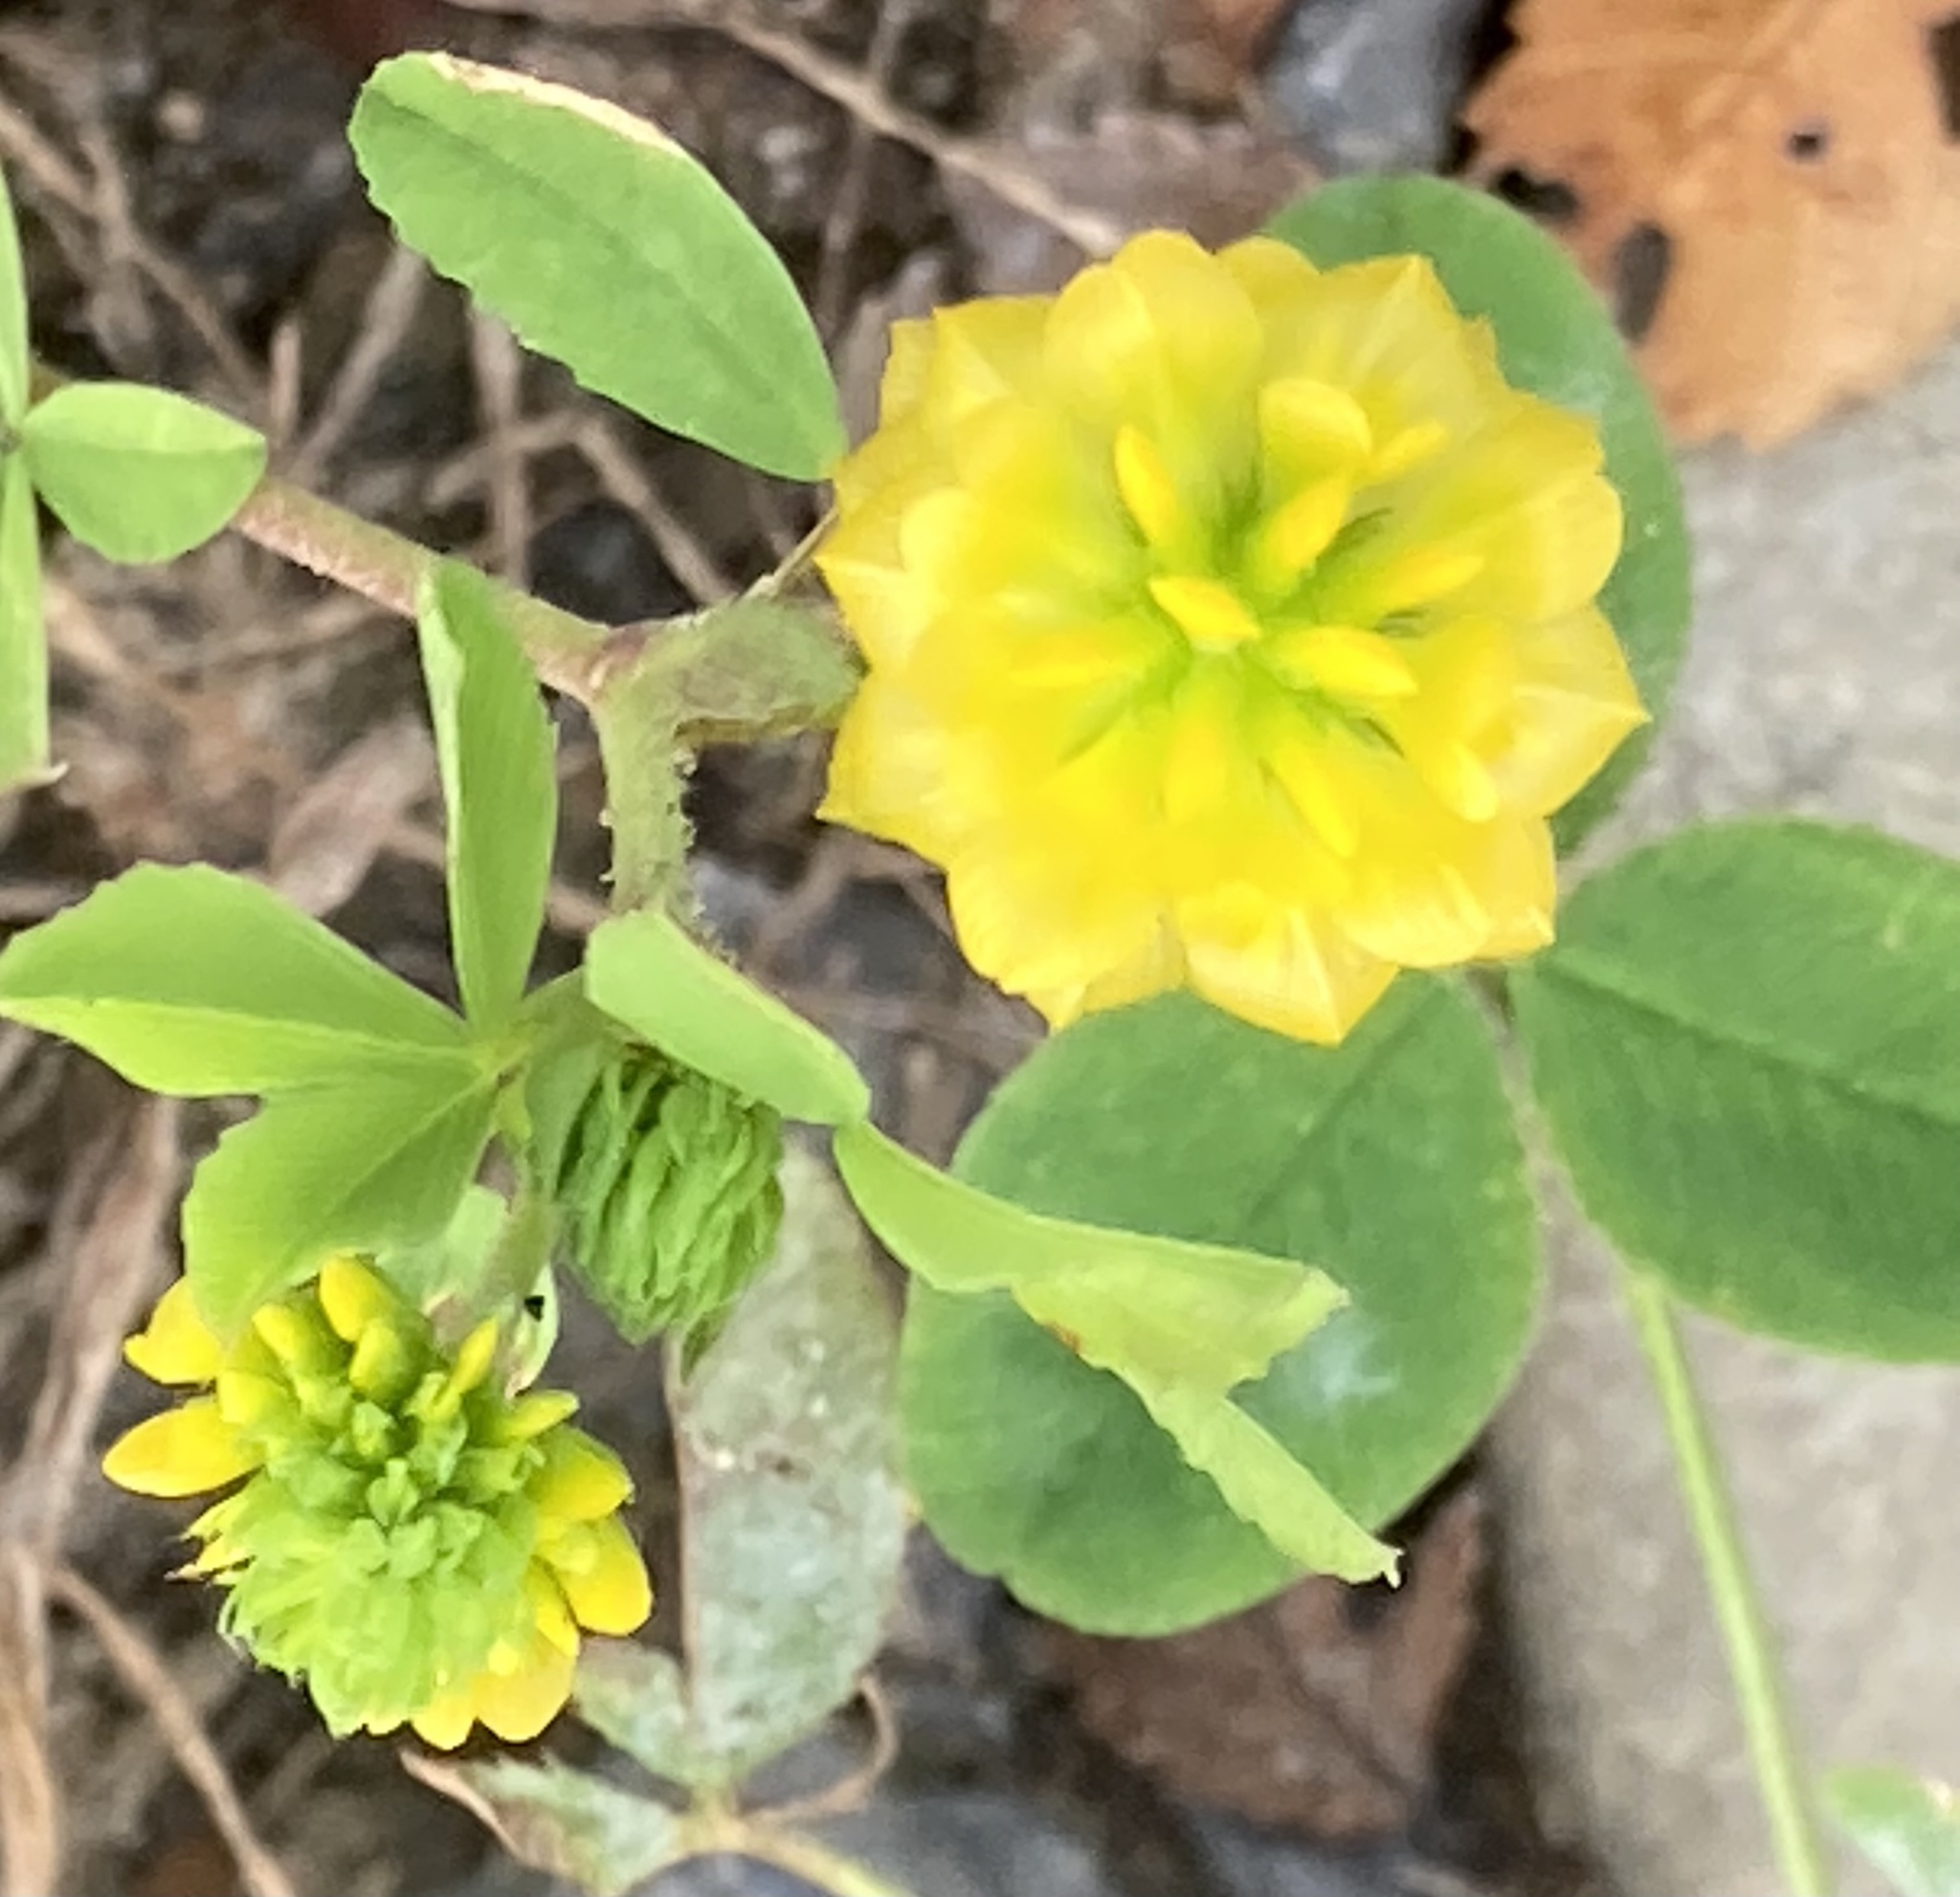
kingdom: Plantae
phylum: Tracheophyta
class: Magnoliopsida
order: Fabales
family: Fabaceae
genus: Trifolium
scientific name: Trifolium campestre
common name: Field clover
